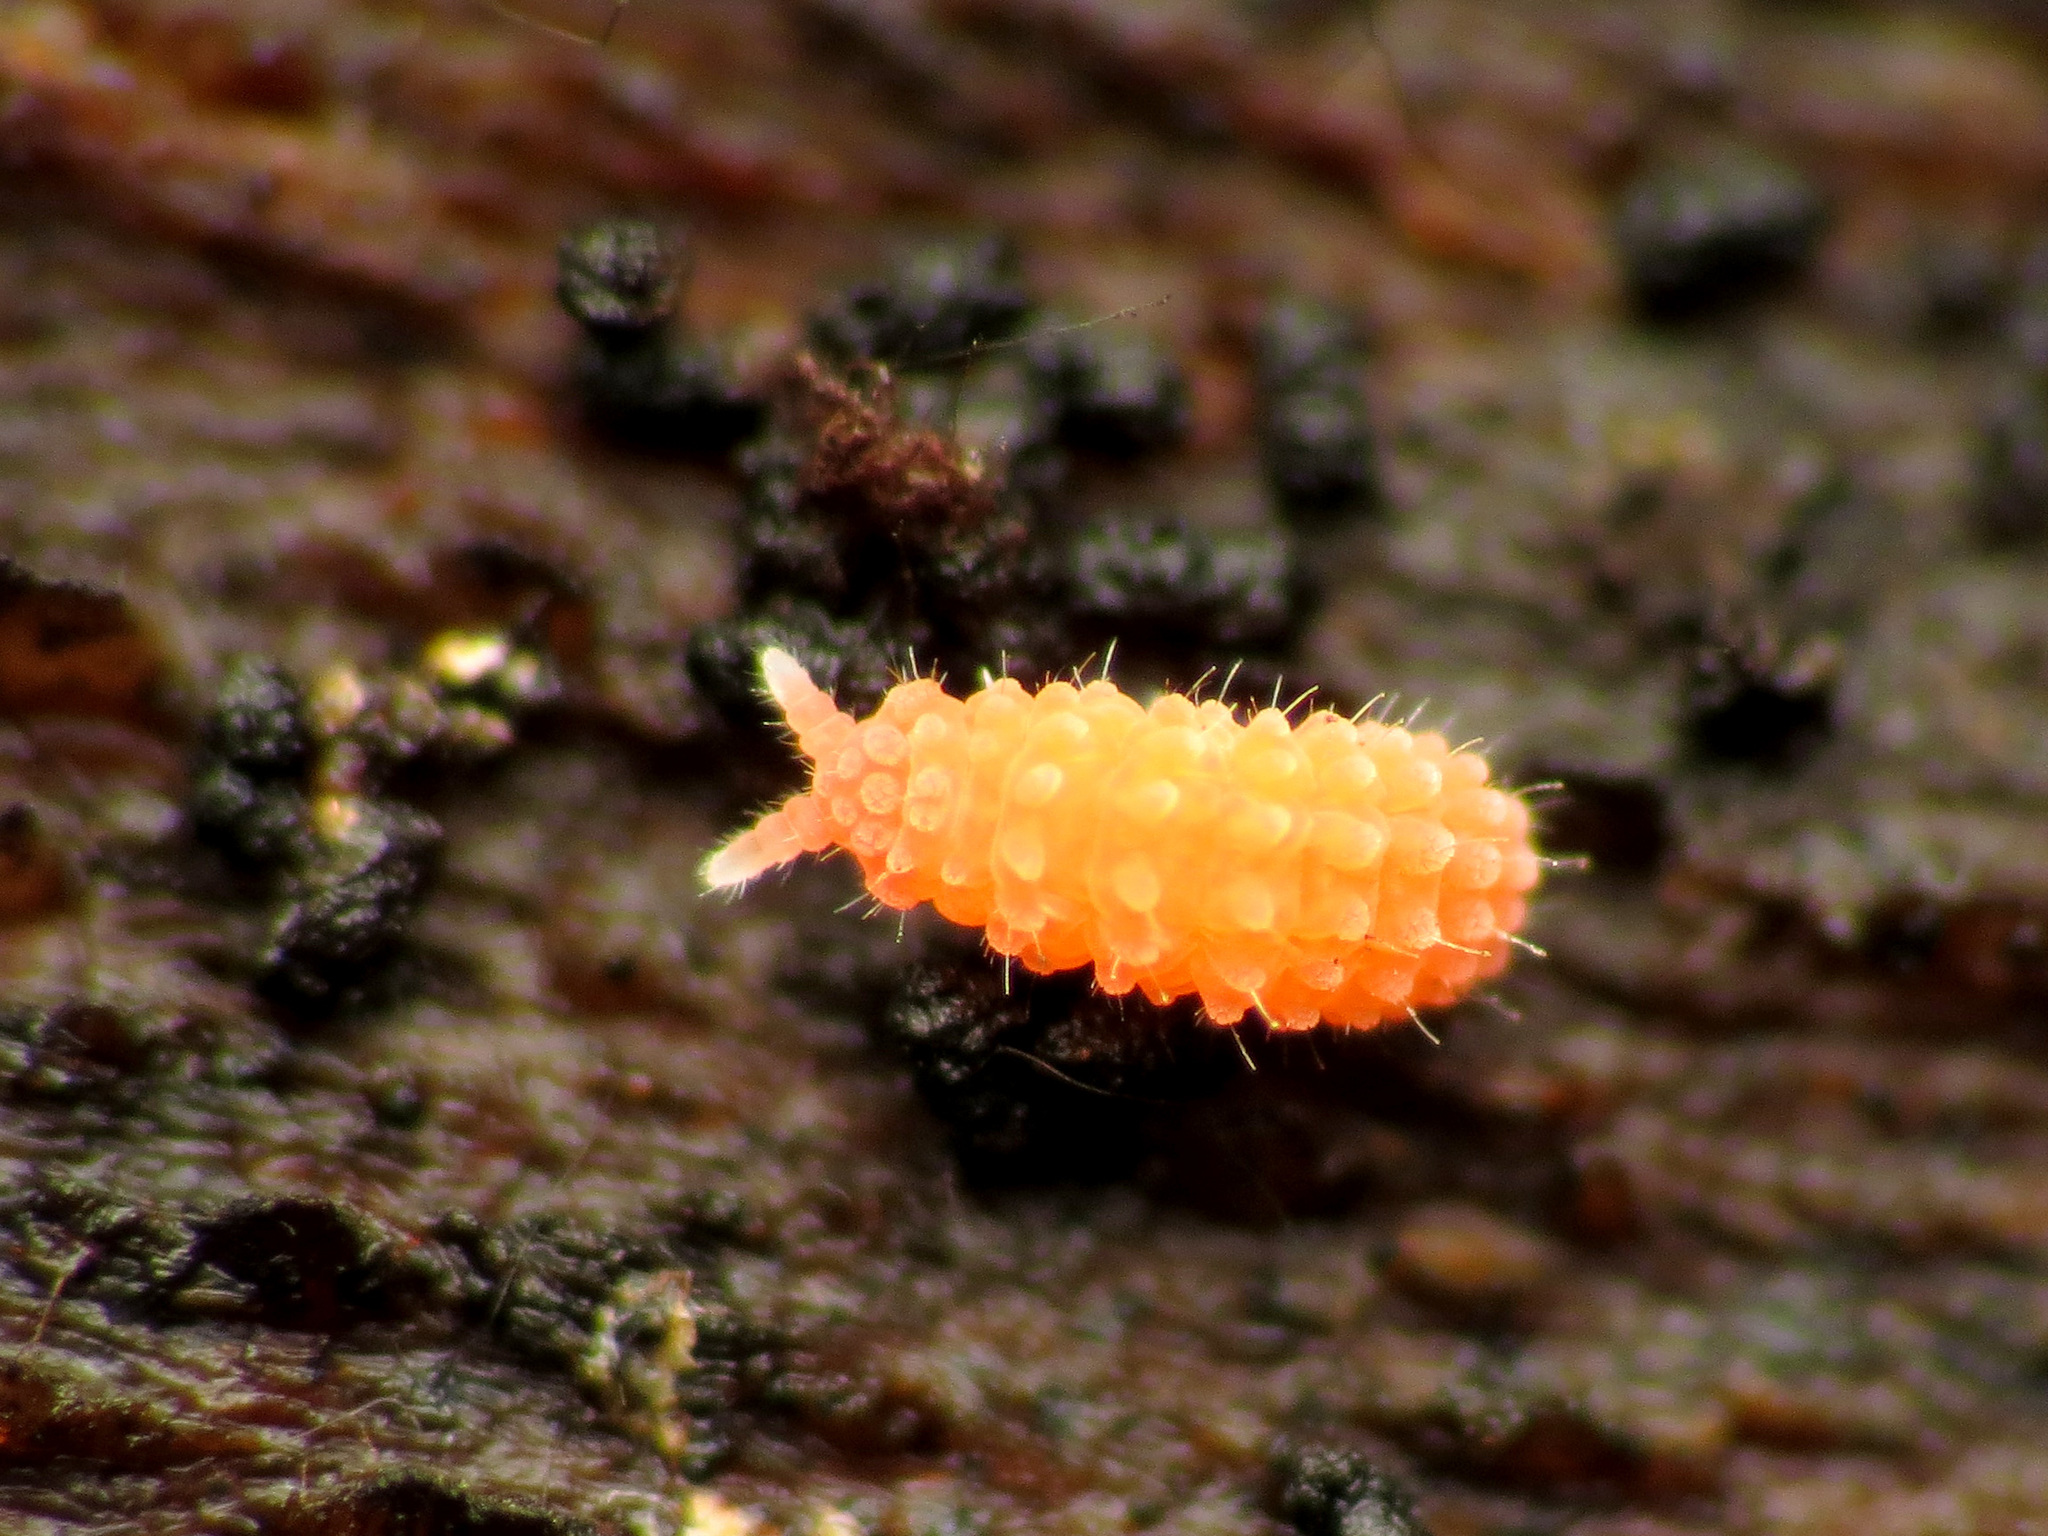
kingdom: Animalia
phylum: Arthropoda
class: Collembola
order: Poduromorpha
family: Neanuridae
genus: Vitronura
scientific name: Vitronura giselae
